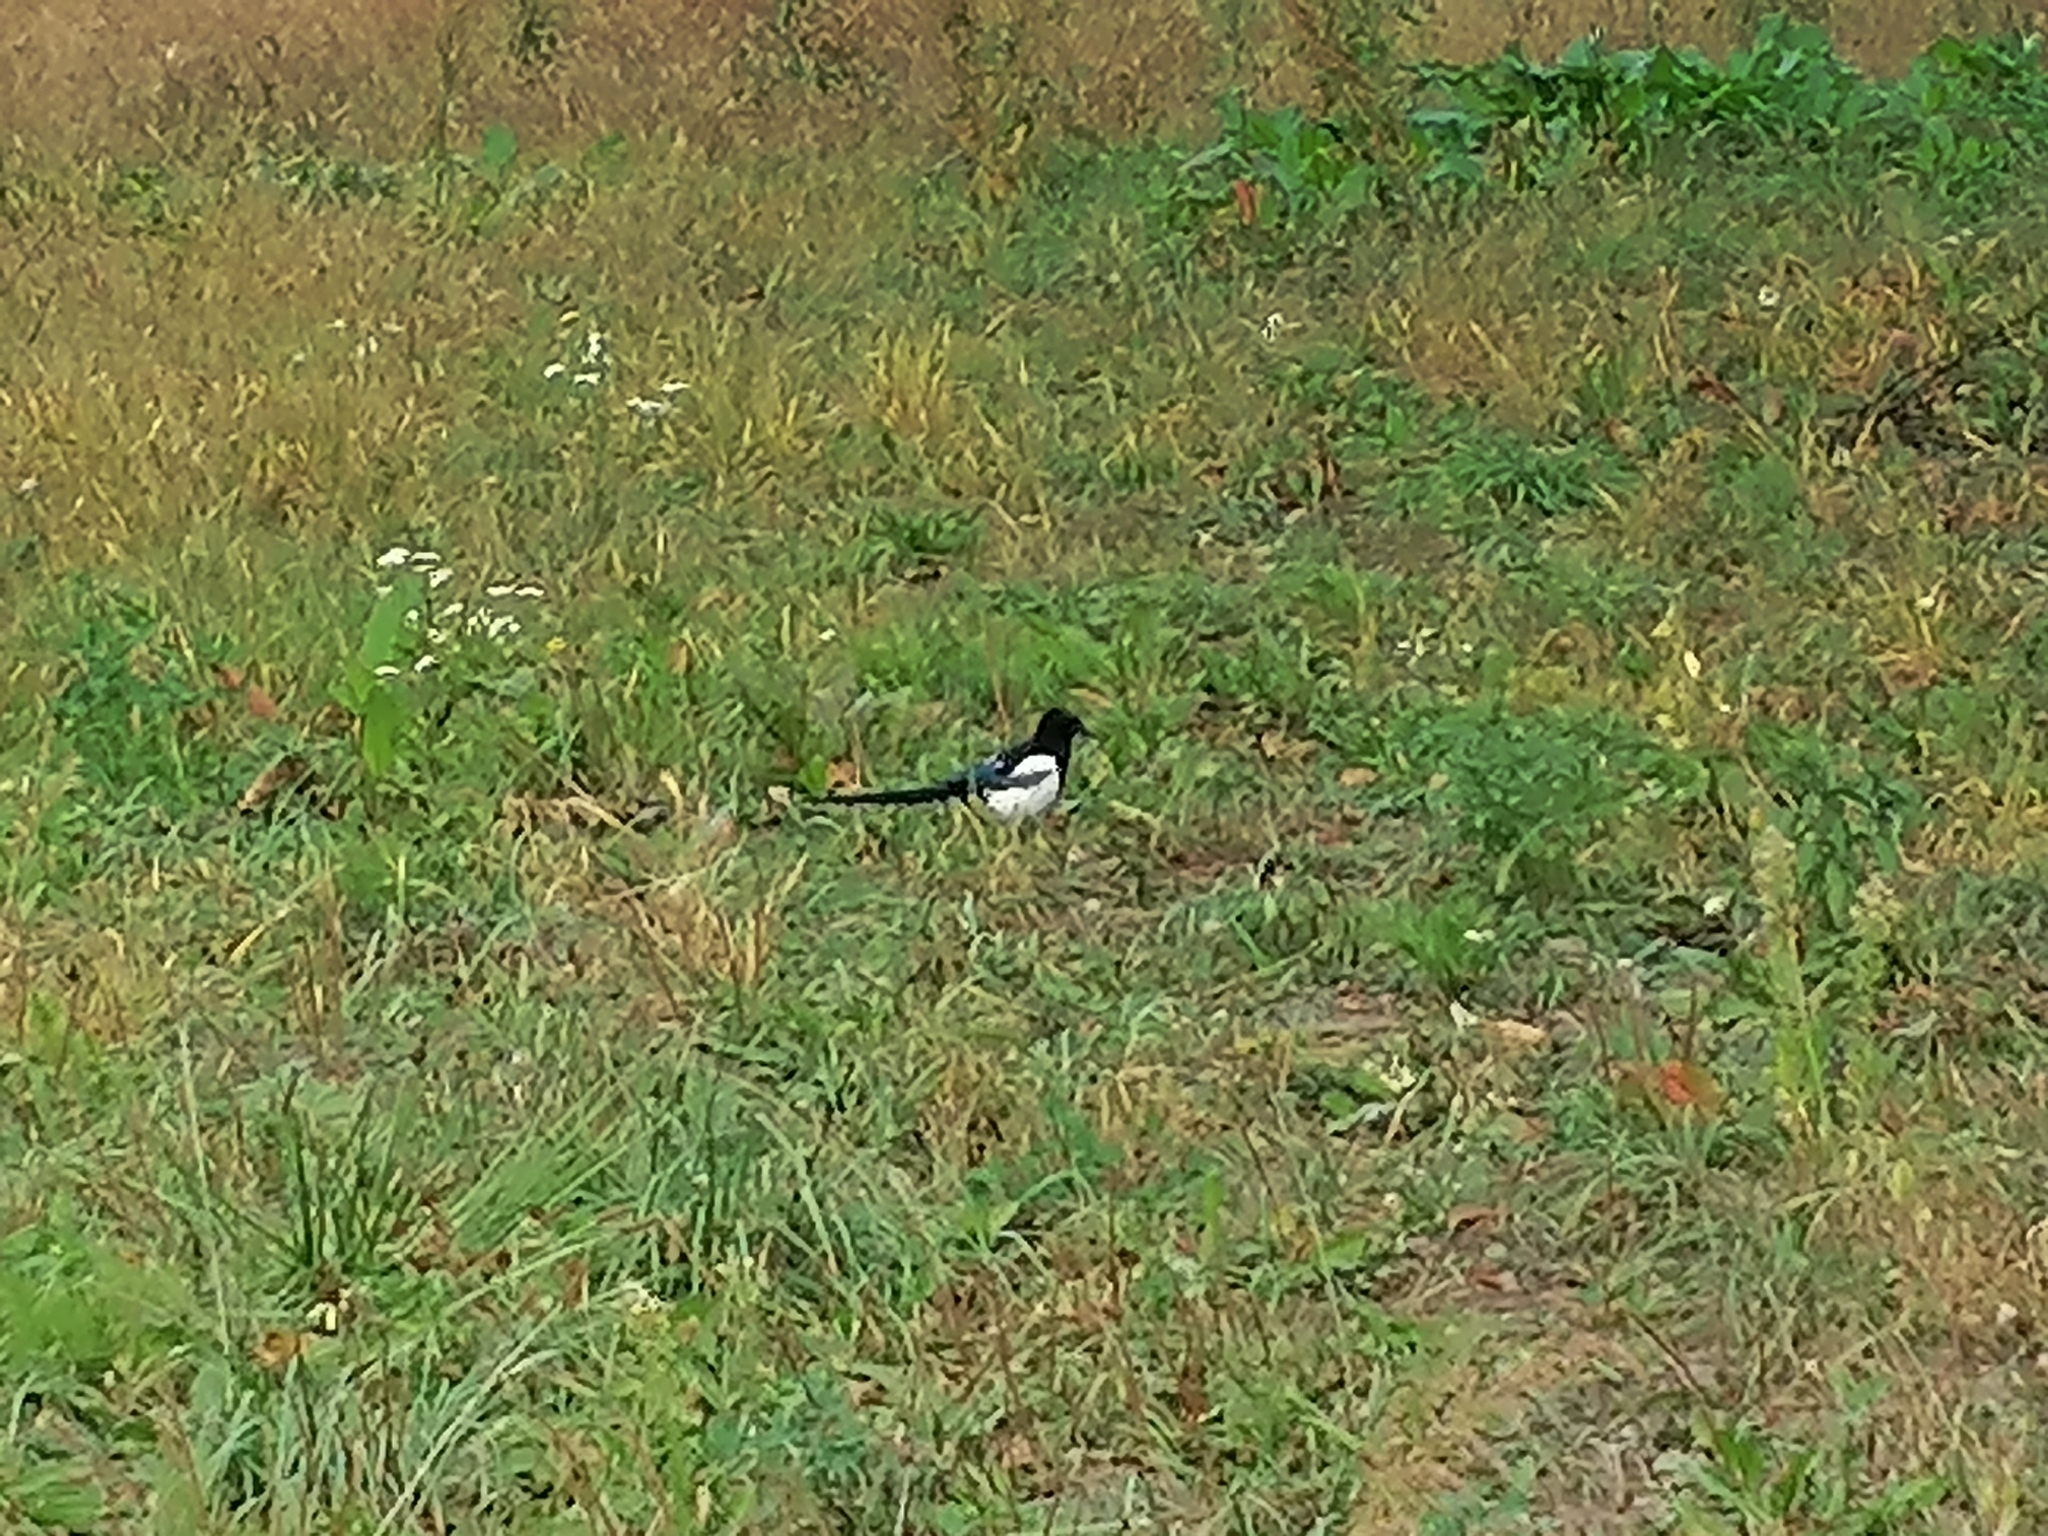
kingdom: Animalia
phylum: Chordata
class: Aves
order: Passeriformes
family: Corvidae
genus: Pica
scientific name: Pica pica
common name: Eurasian magpie
